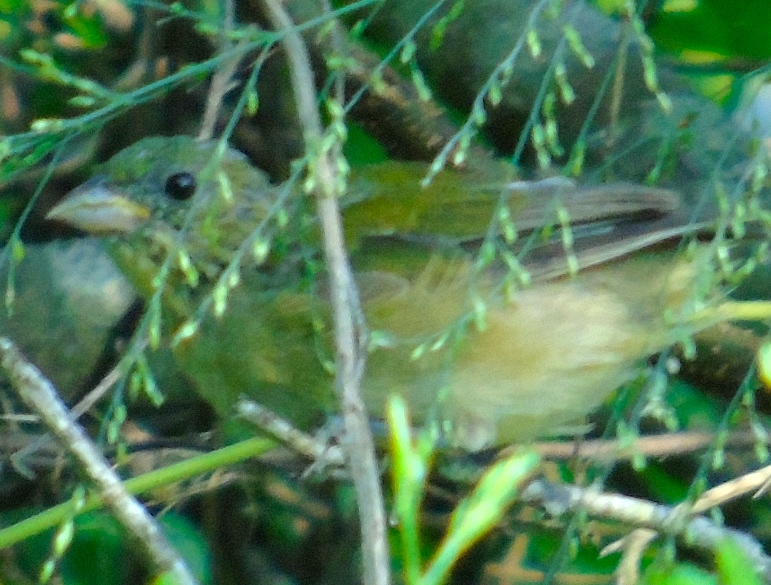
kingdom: Animalia
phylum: Chordata
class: Aves
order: Passeriformes
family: Cardinalidae
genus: Passerina
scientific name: Passerina ciris
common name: Painted bunting
